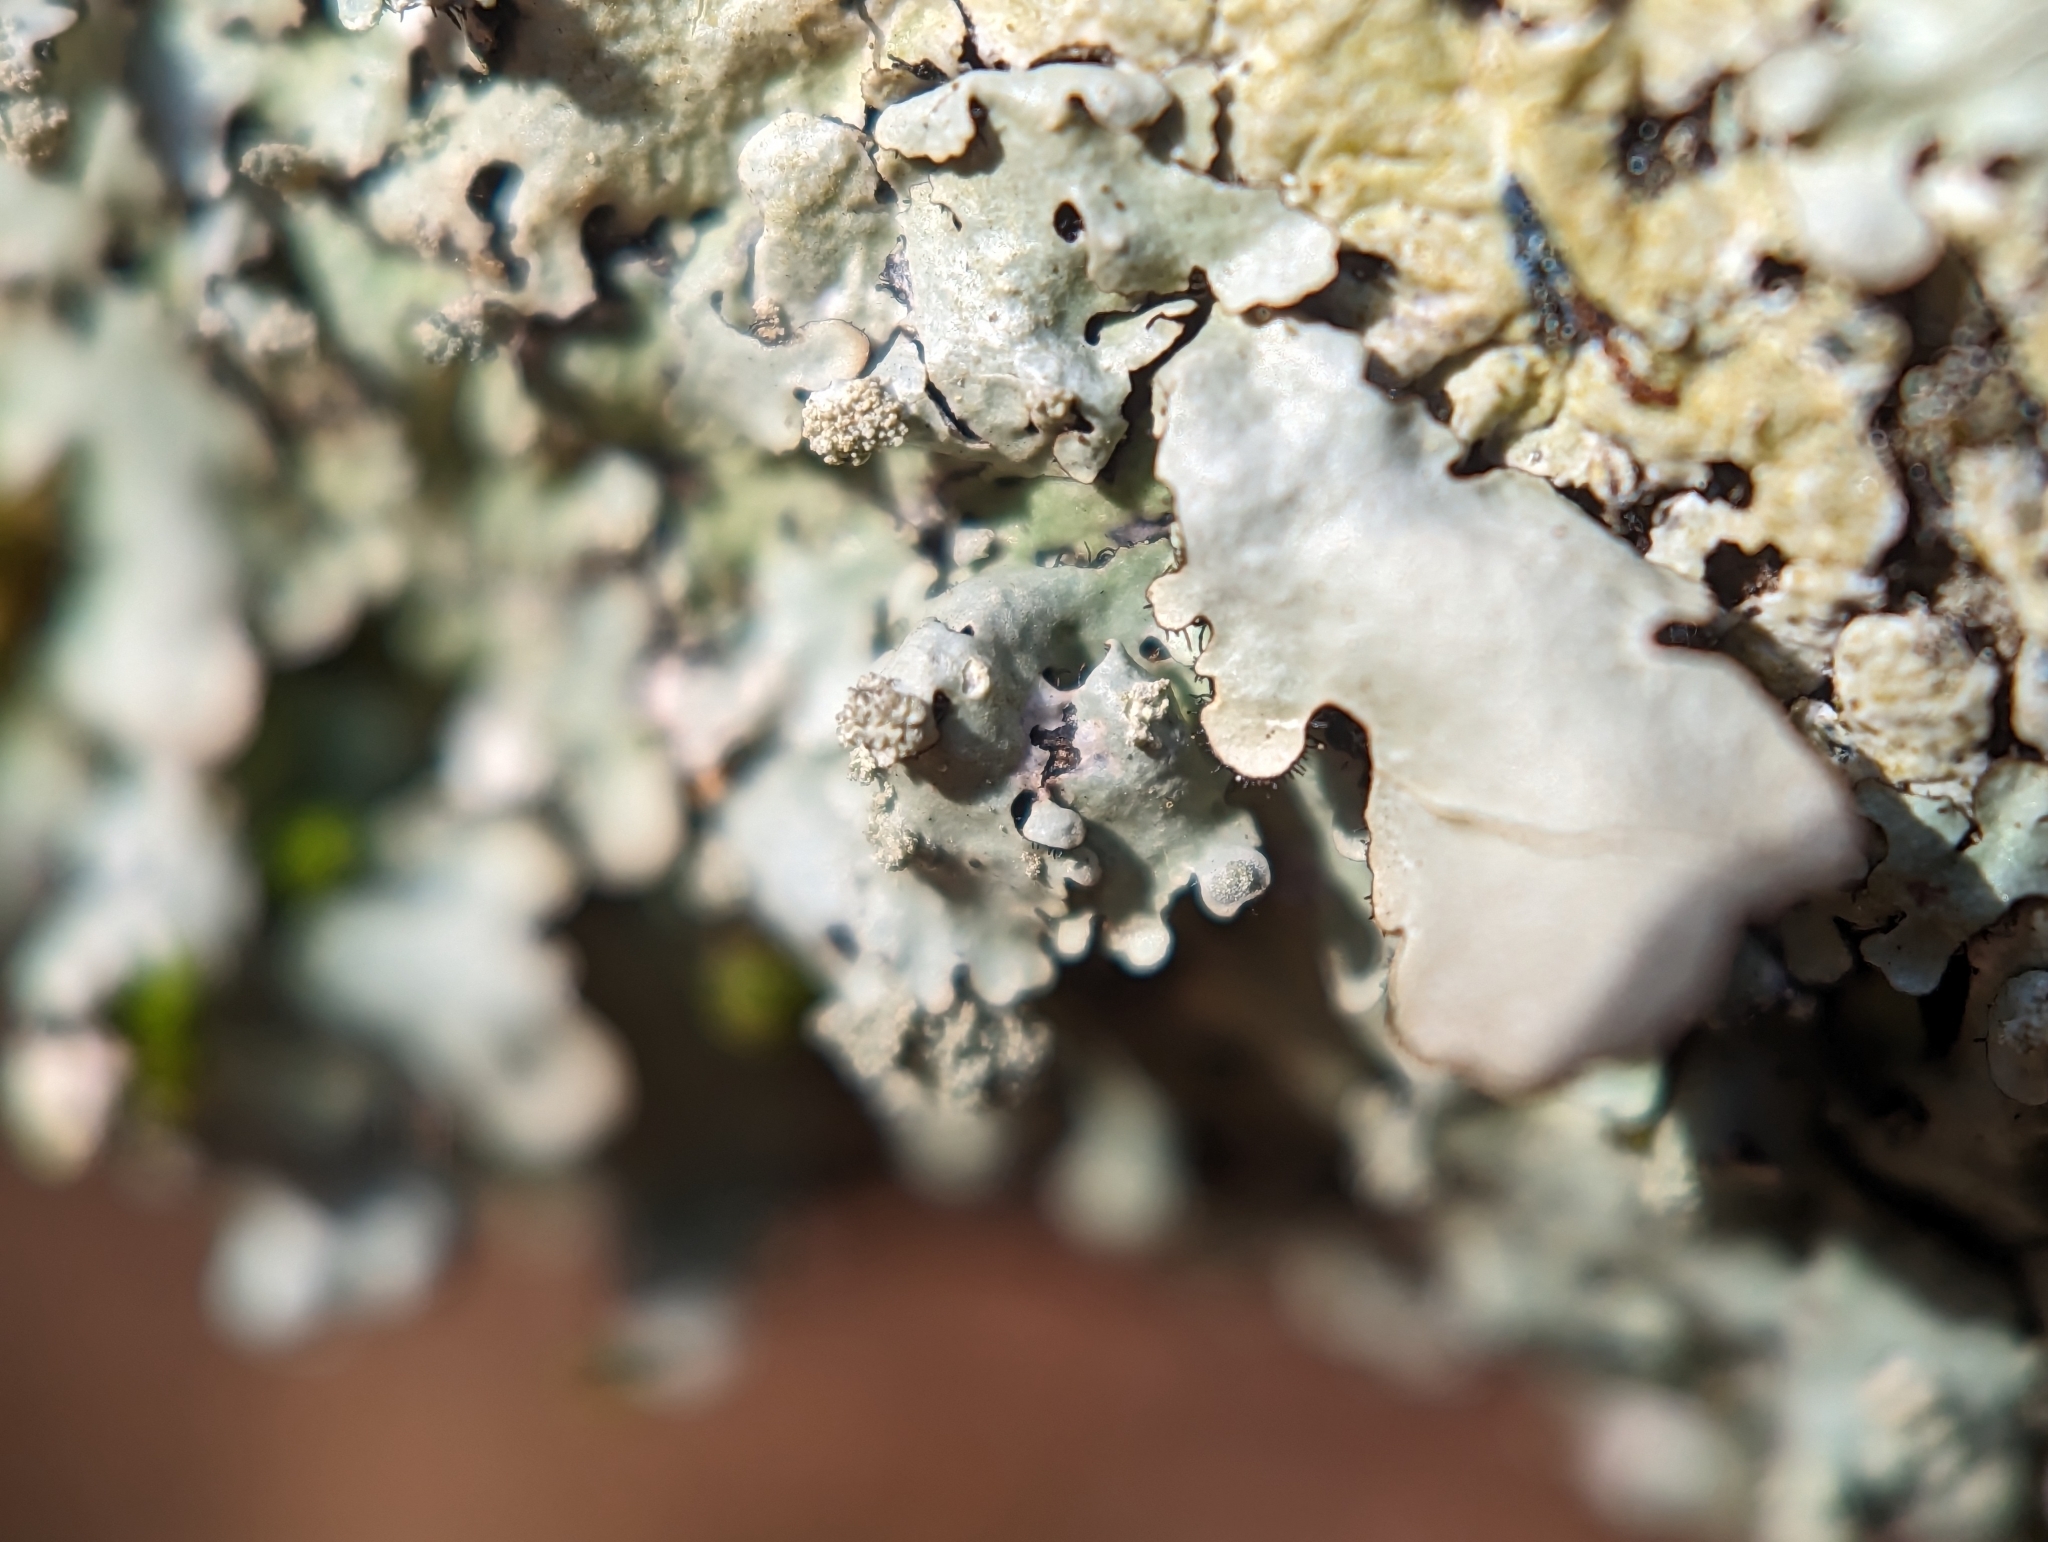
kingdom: Fungi
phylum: Ascomycota
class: Lecanoromycetes
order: Caliciales
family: Caliciaceae
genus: Pyxine
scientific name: Pyxine subcinerea
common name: Mustard lichen
